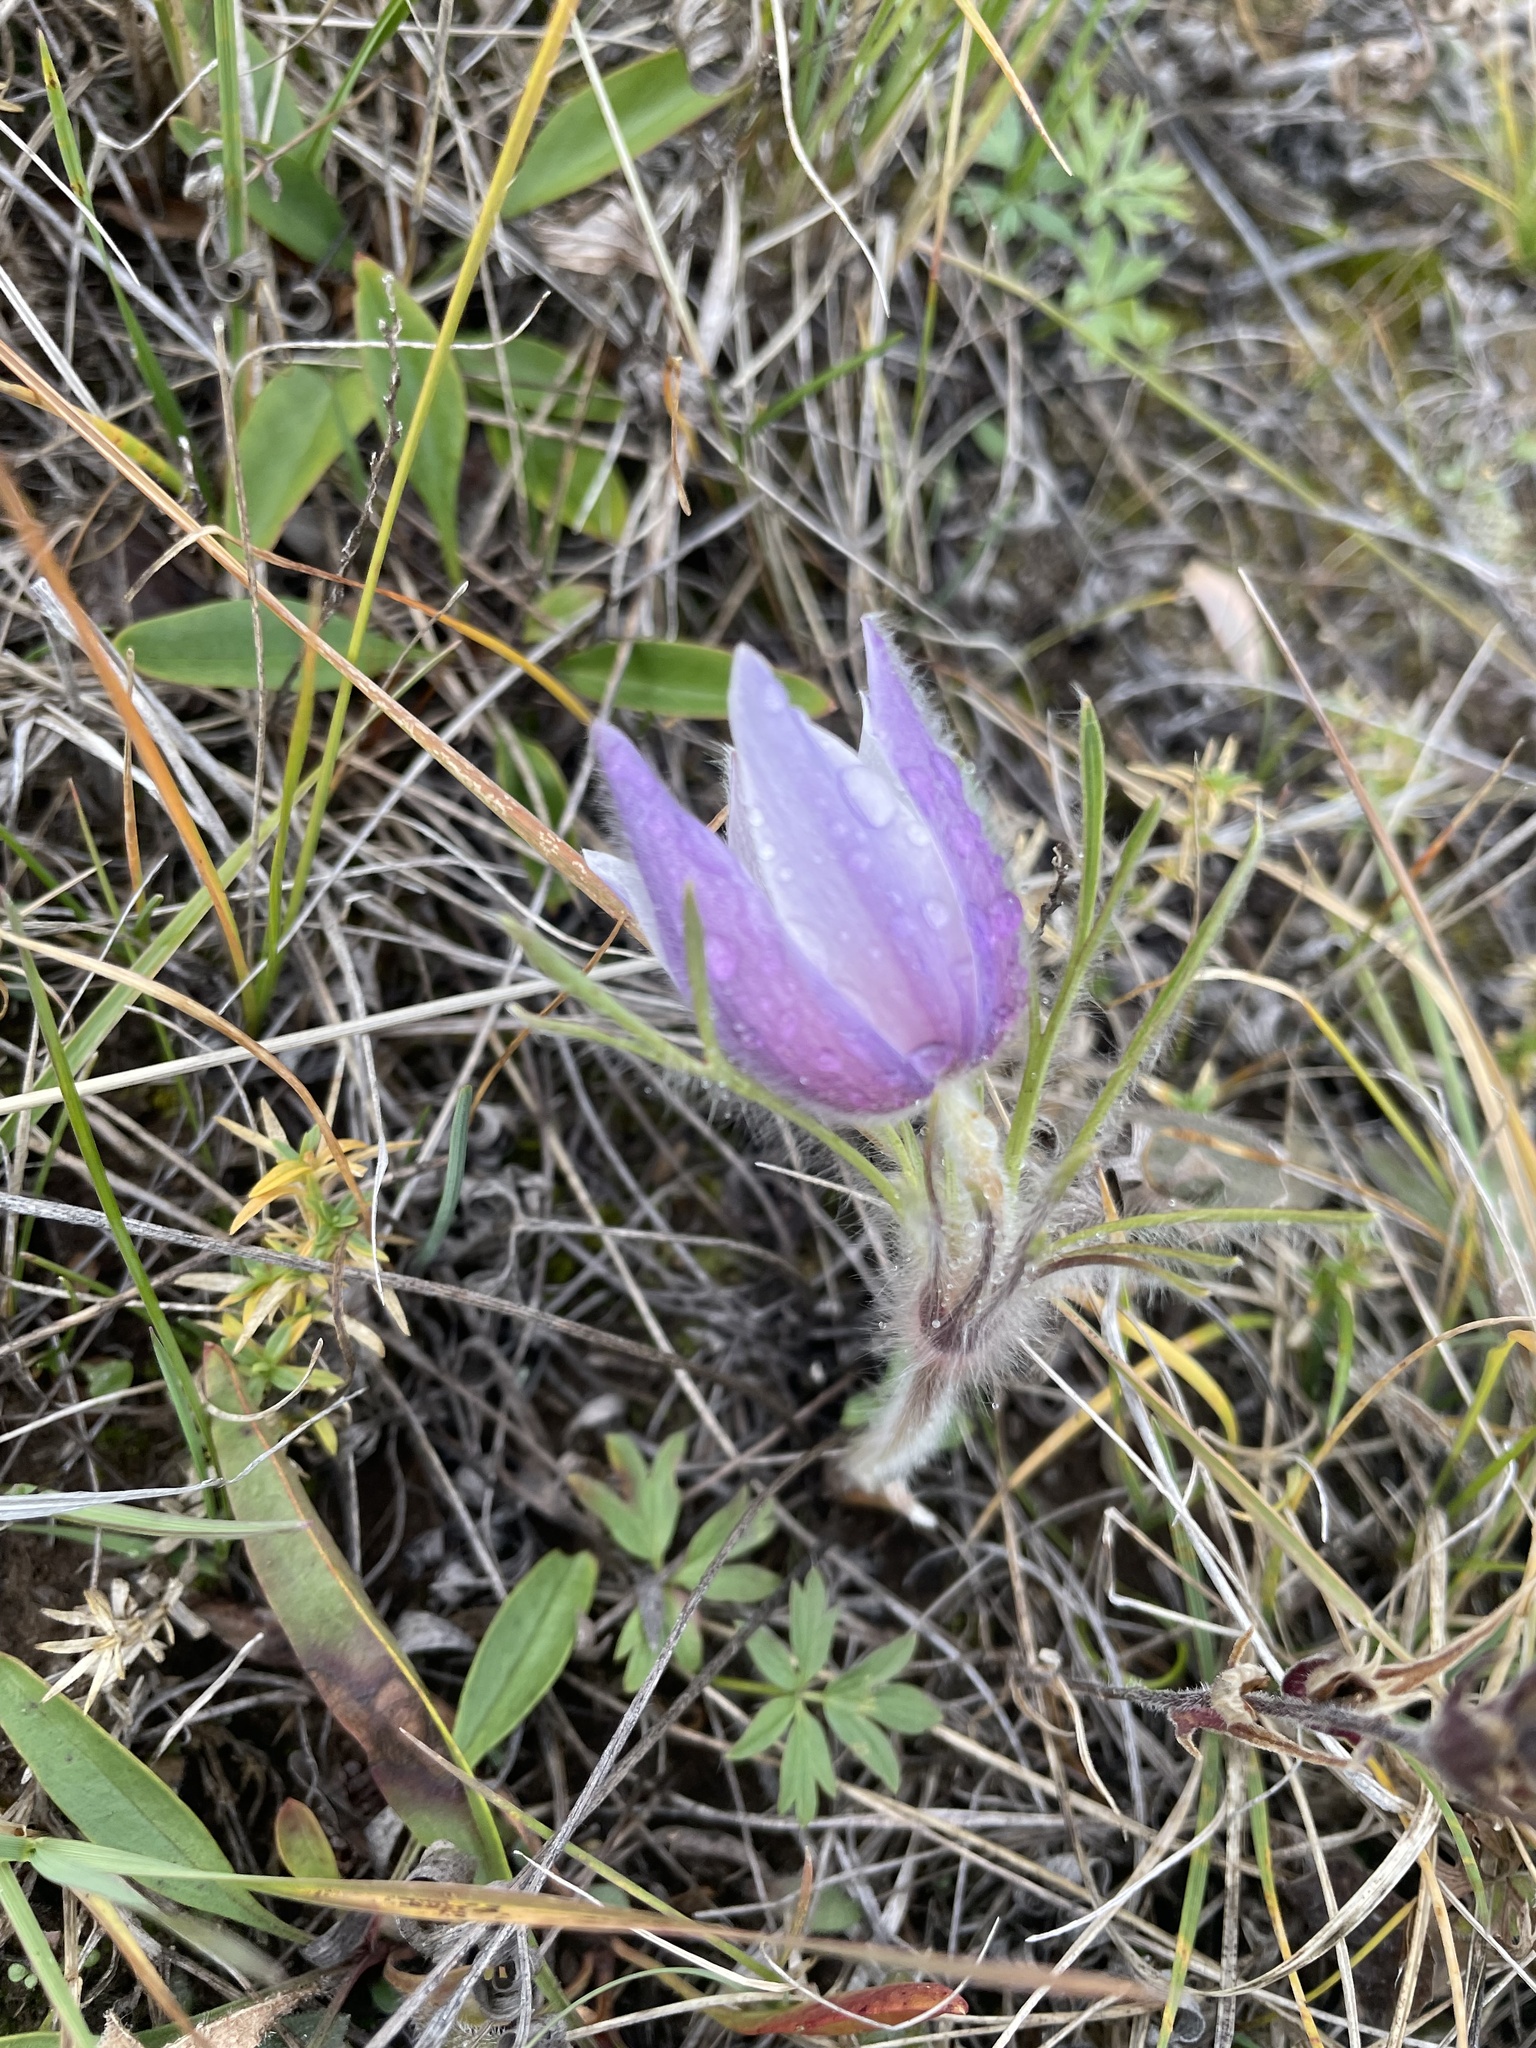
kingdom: Plantae
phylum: Tracheophyta
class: Magnoliopsida
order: Ranunculales
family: Ranunculaceae
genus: Pulsatilla
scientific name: Pulsatilla nuttalliana
